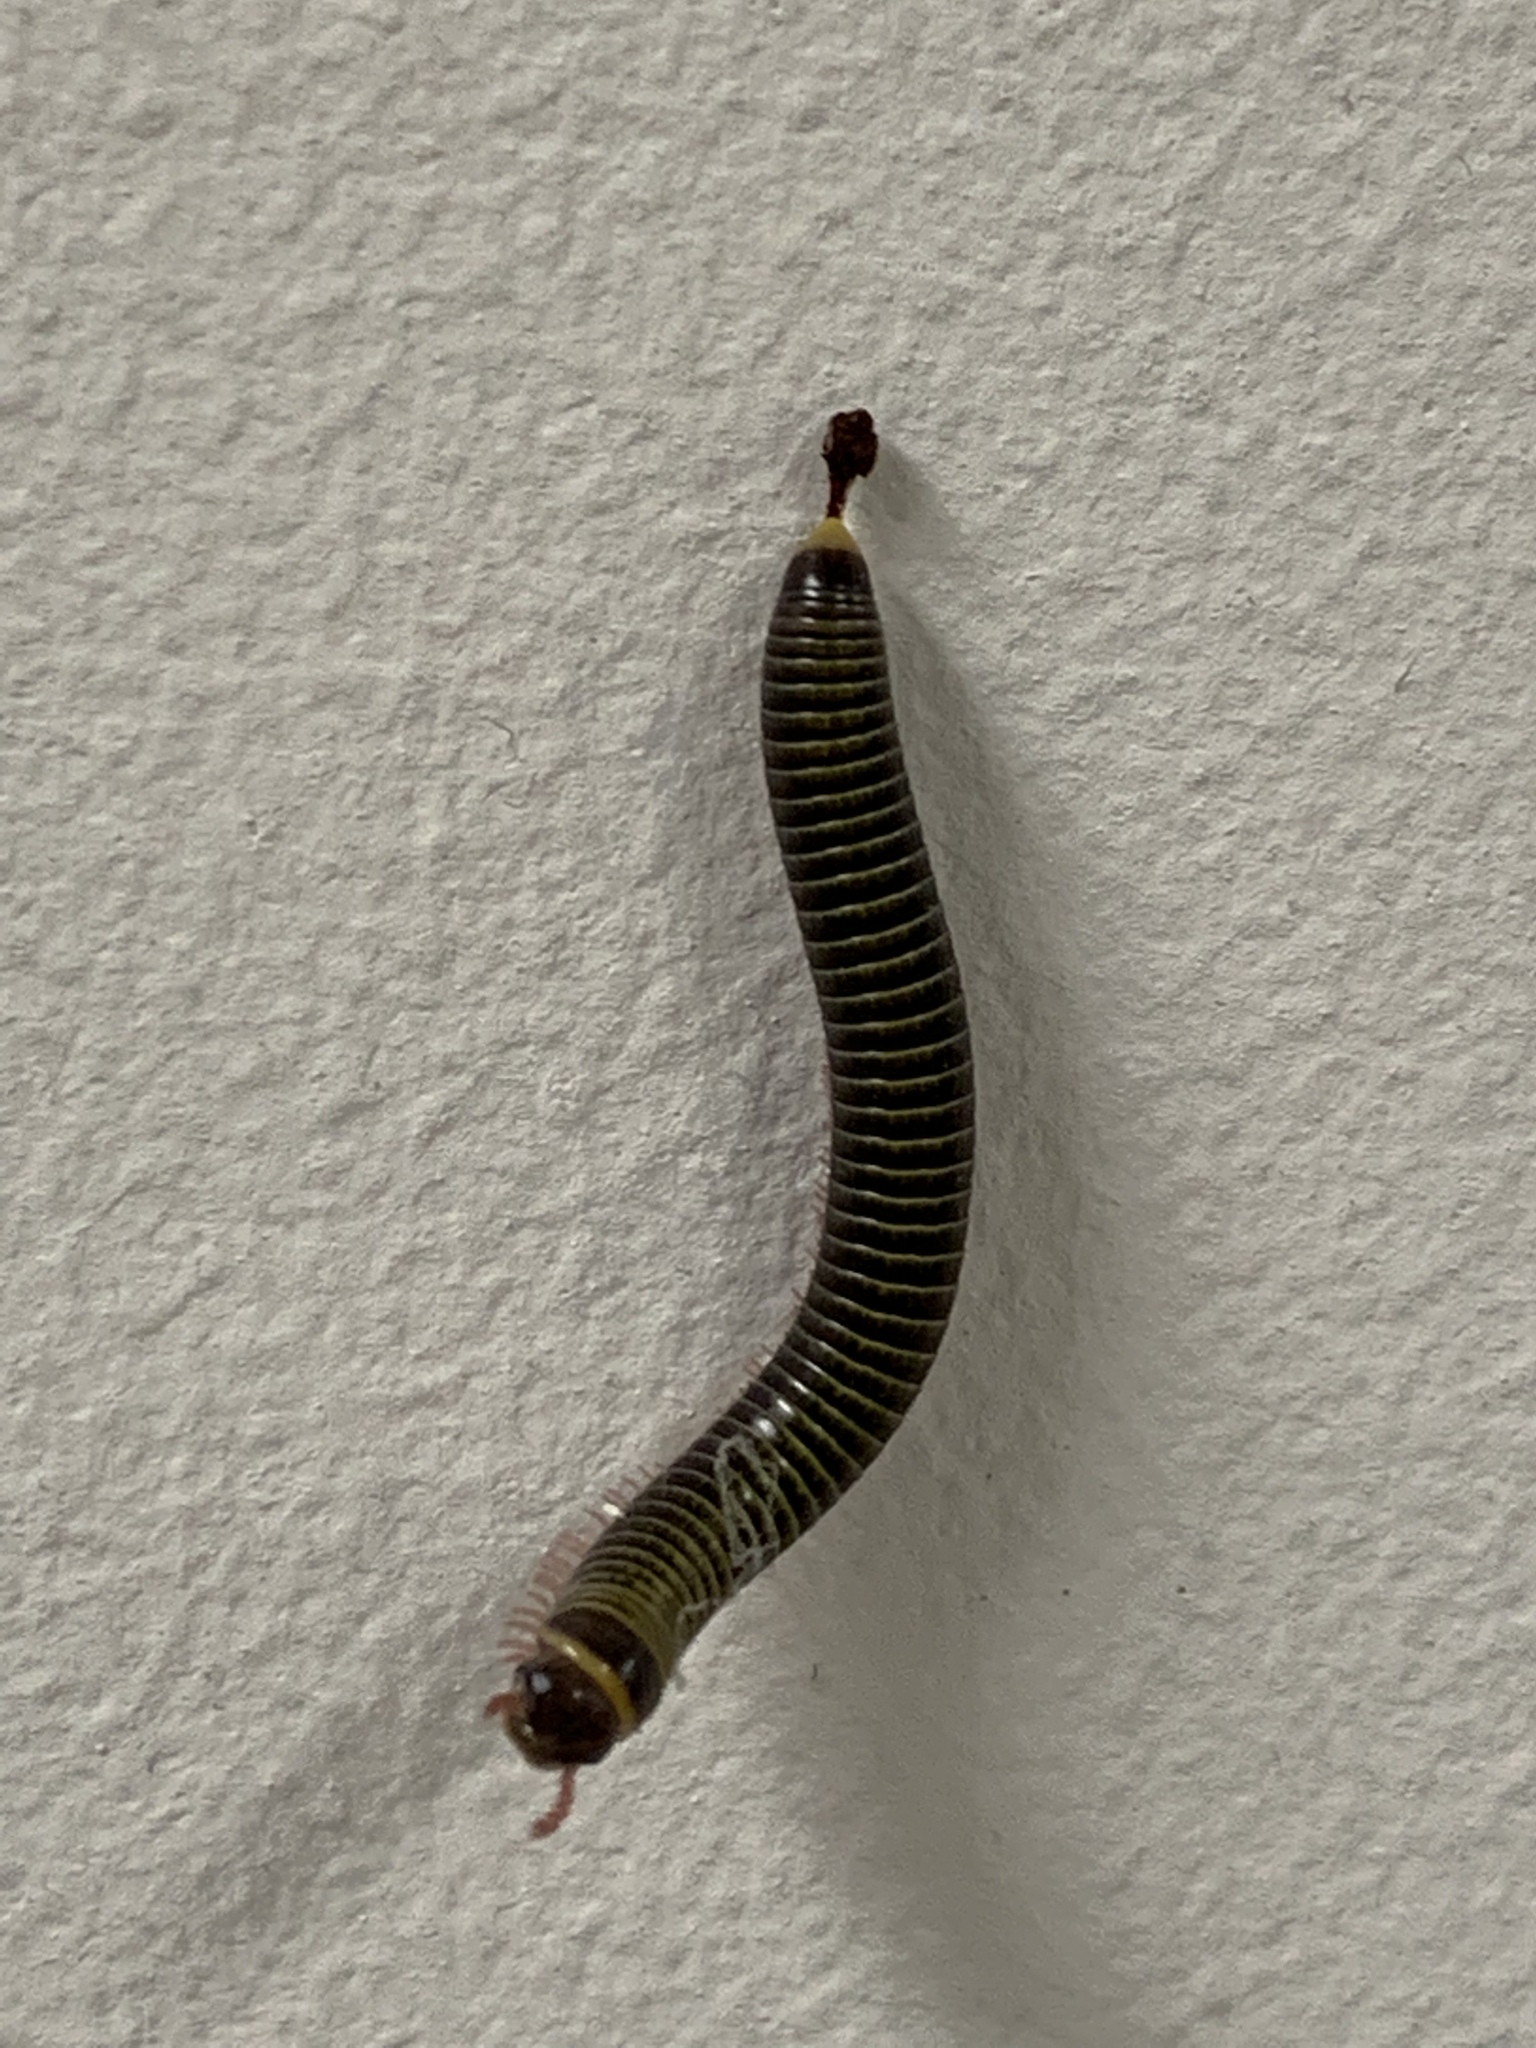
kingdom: Animalia
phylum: Arthropoda
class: Diplopoda
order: Spirobolida
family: Rhinocricidae
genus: Anadenobolus
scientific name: Anadenobolus monilicornis
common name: Caribbean millipede
